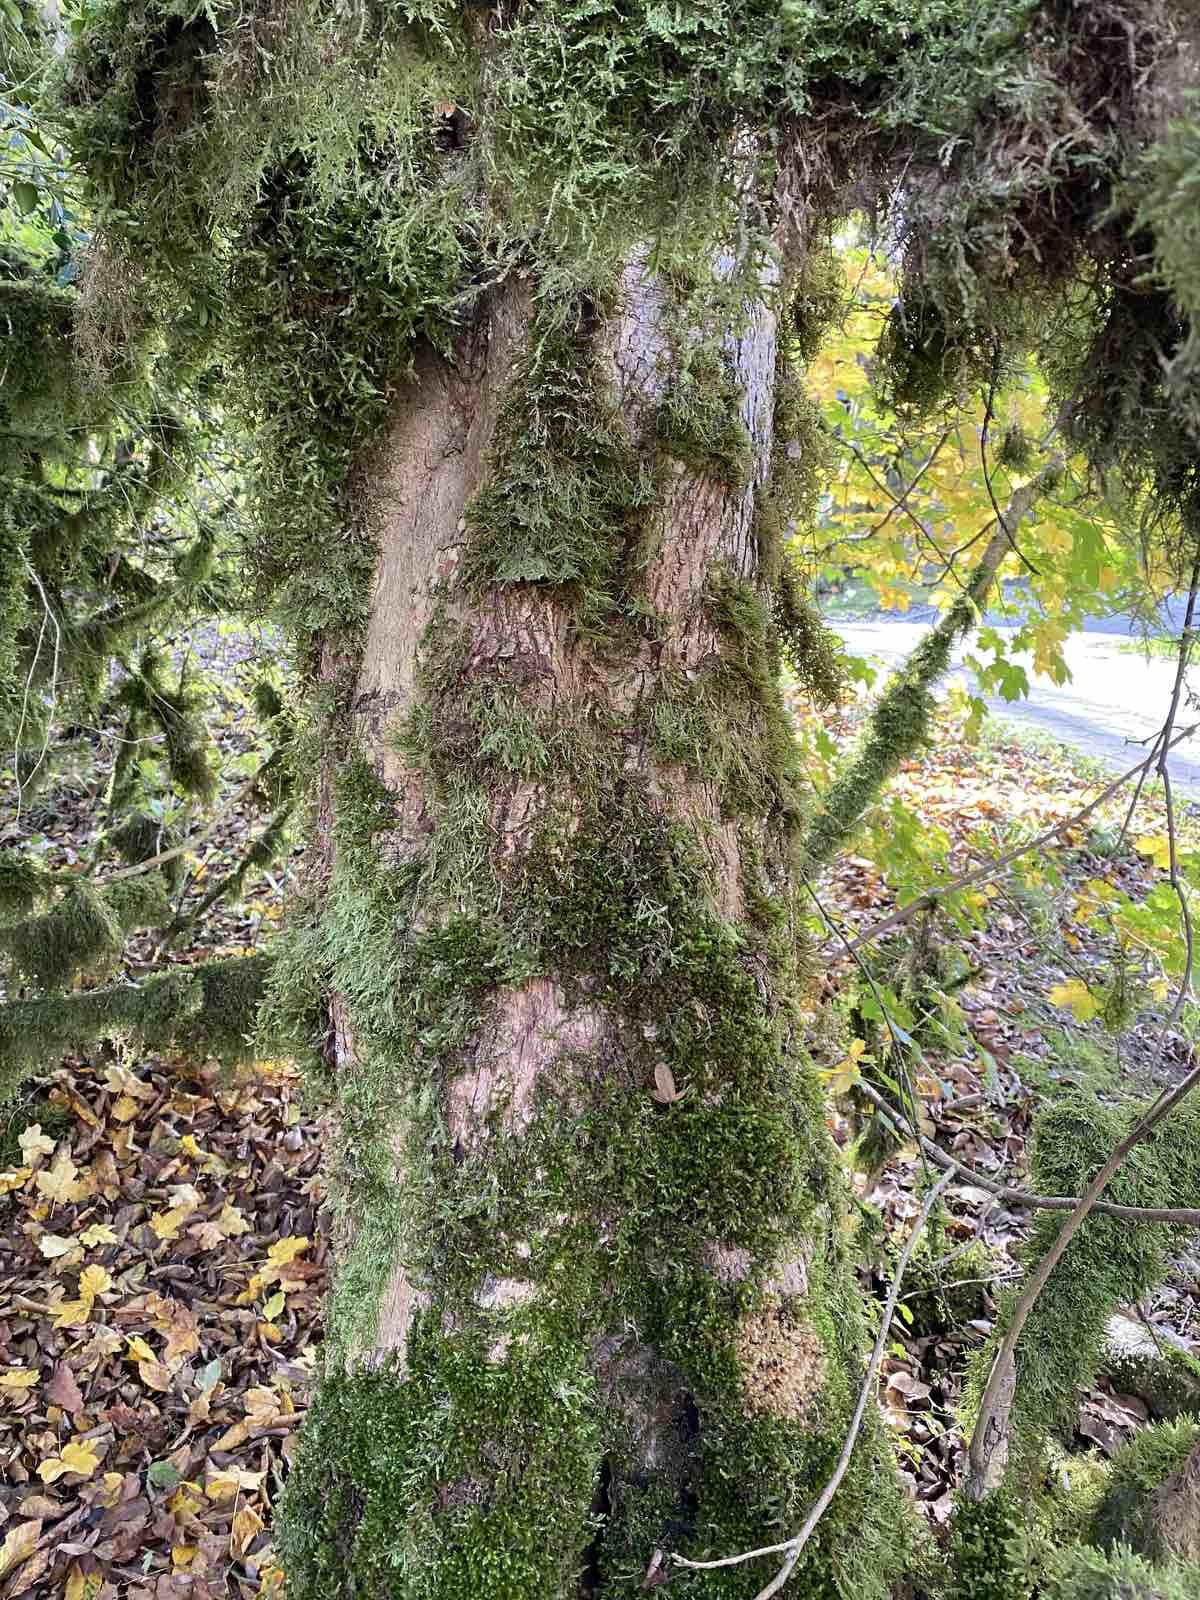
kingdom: Plantae
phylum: Bryophyta
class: Bryopsida
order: Hypnales
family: Neckeraceae
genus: Homalia
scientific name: Homalia trichomanoides
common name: Lime homalia moss
